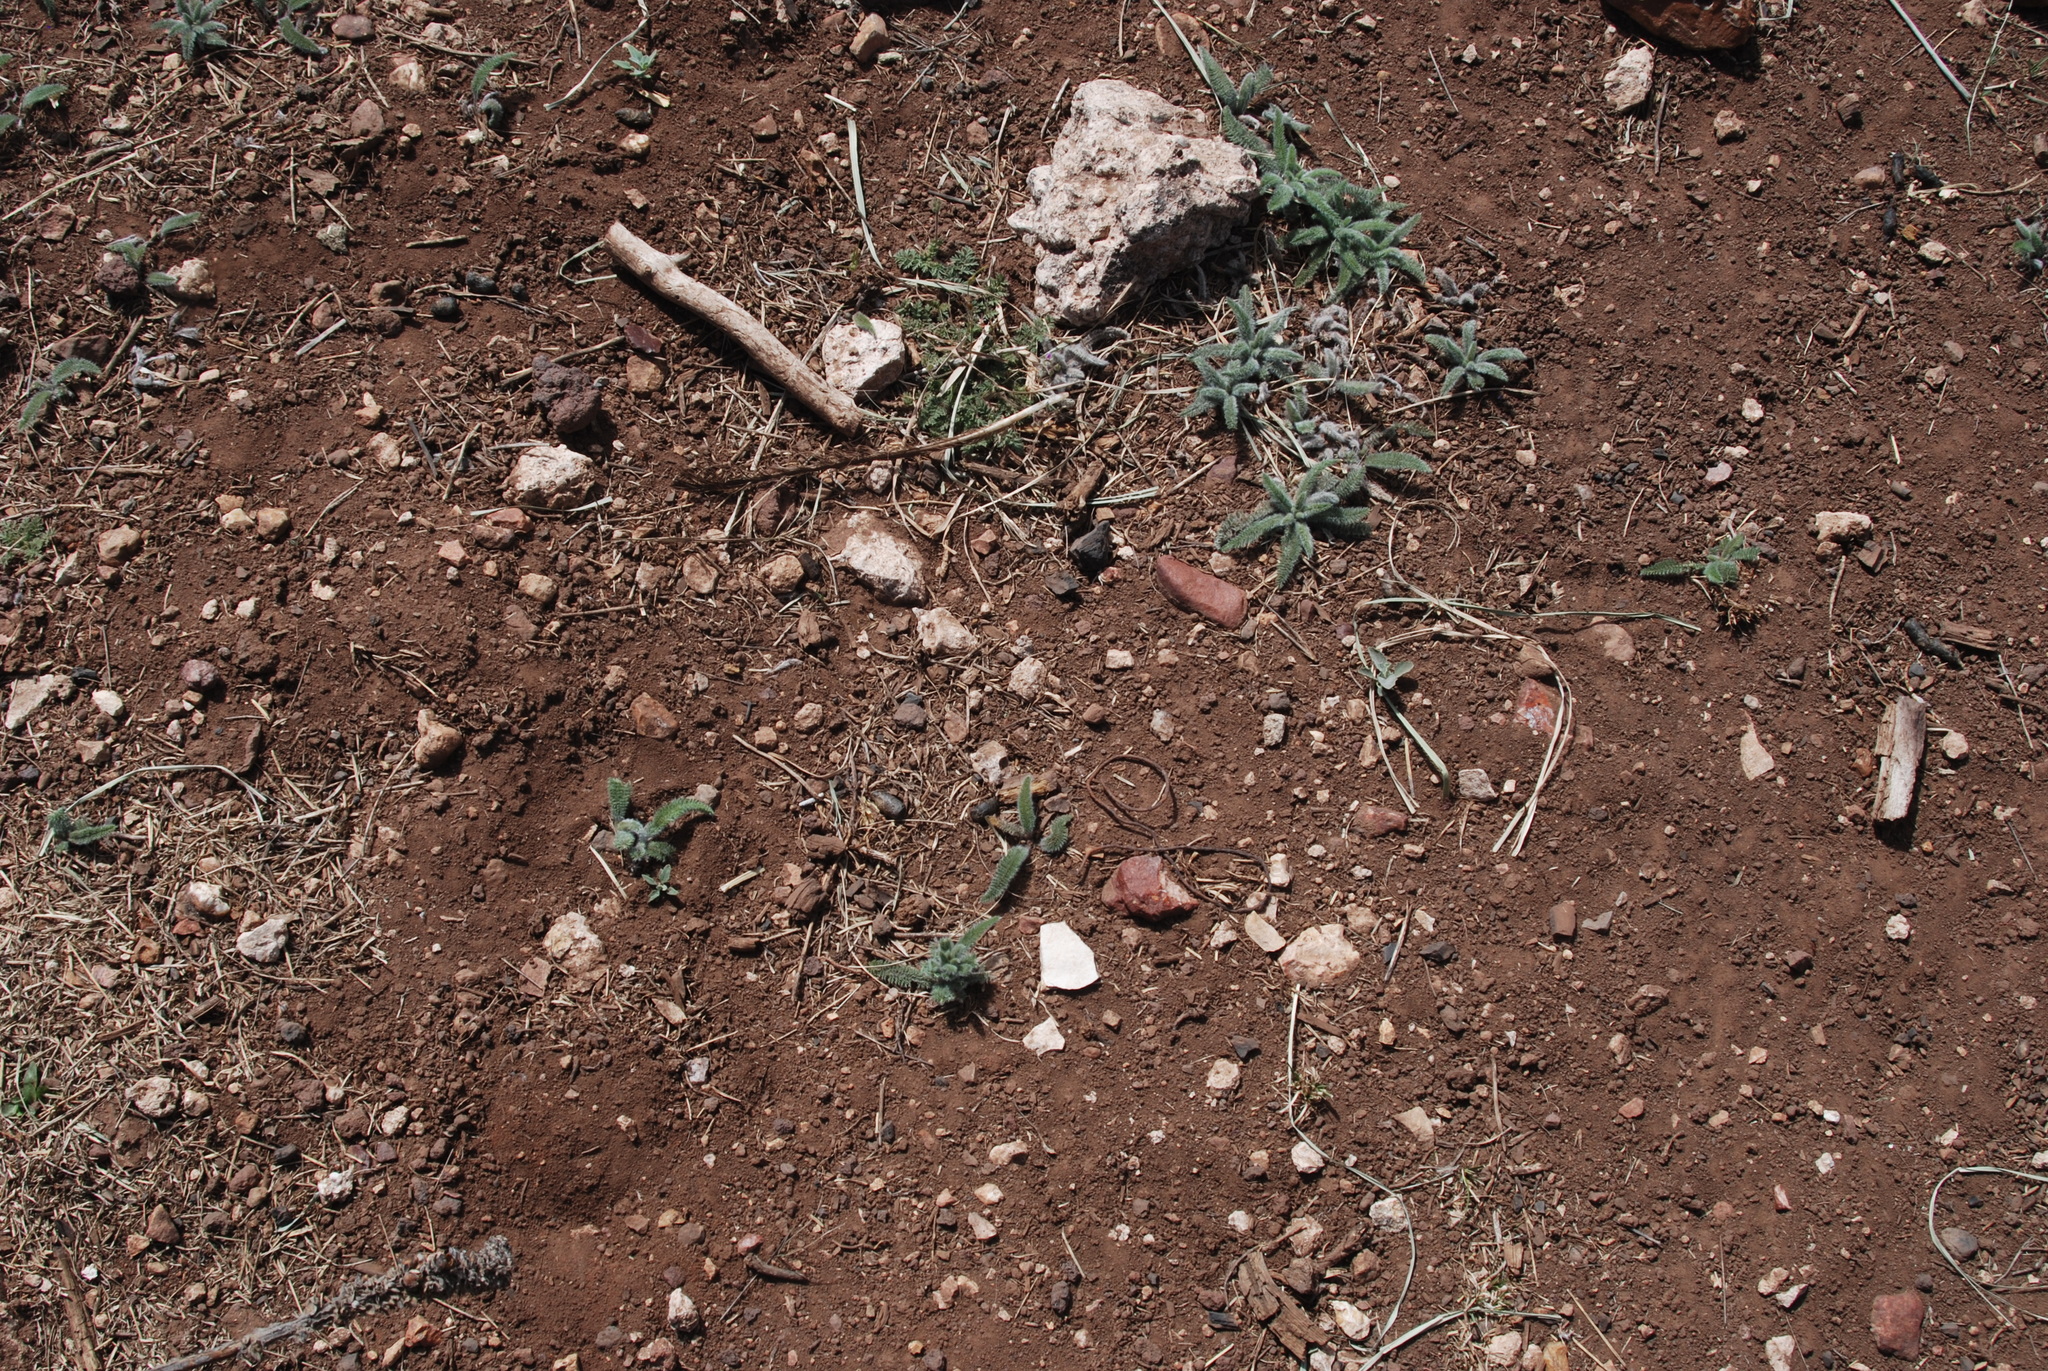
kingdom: Plantae
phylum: Tracheophyta
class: Magnoliopsida
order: Asterales
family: Asteraceae
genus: Achillea
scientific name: Achillea millefolium
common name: Yarrow
